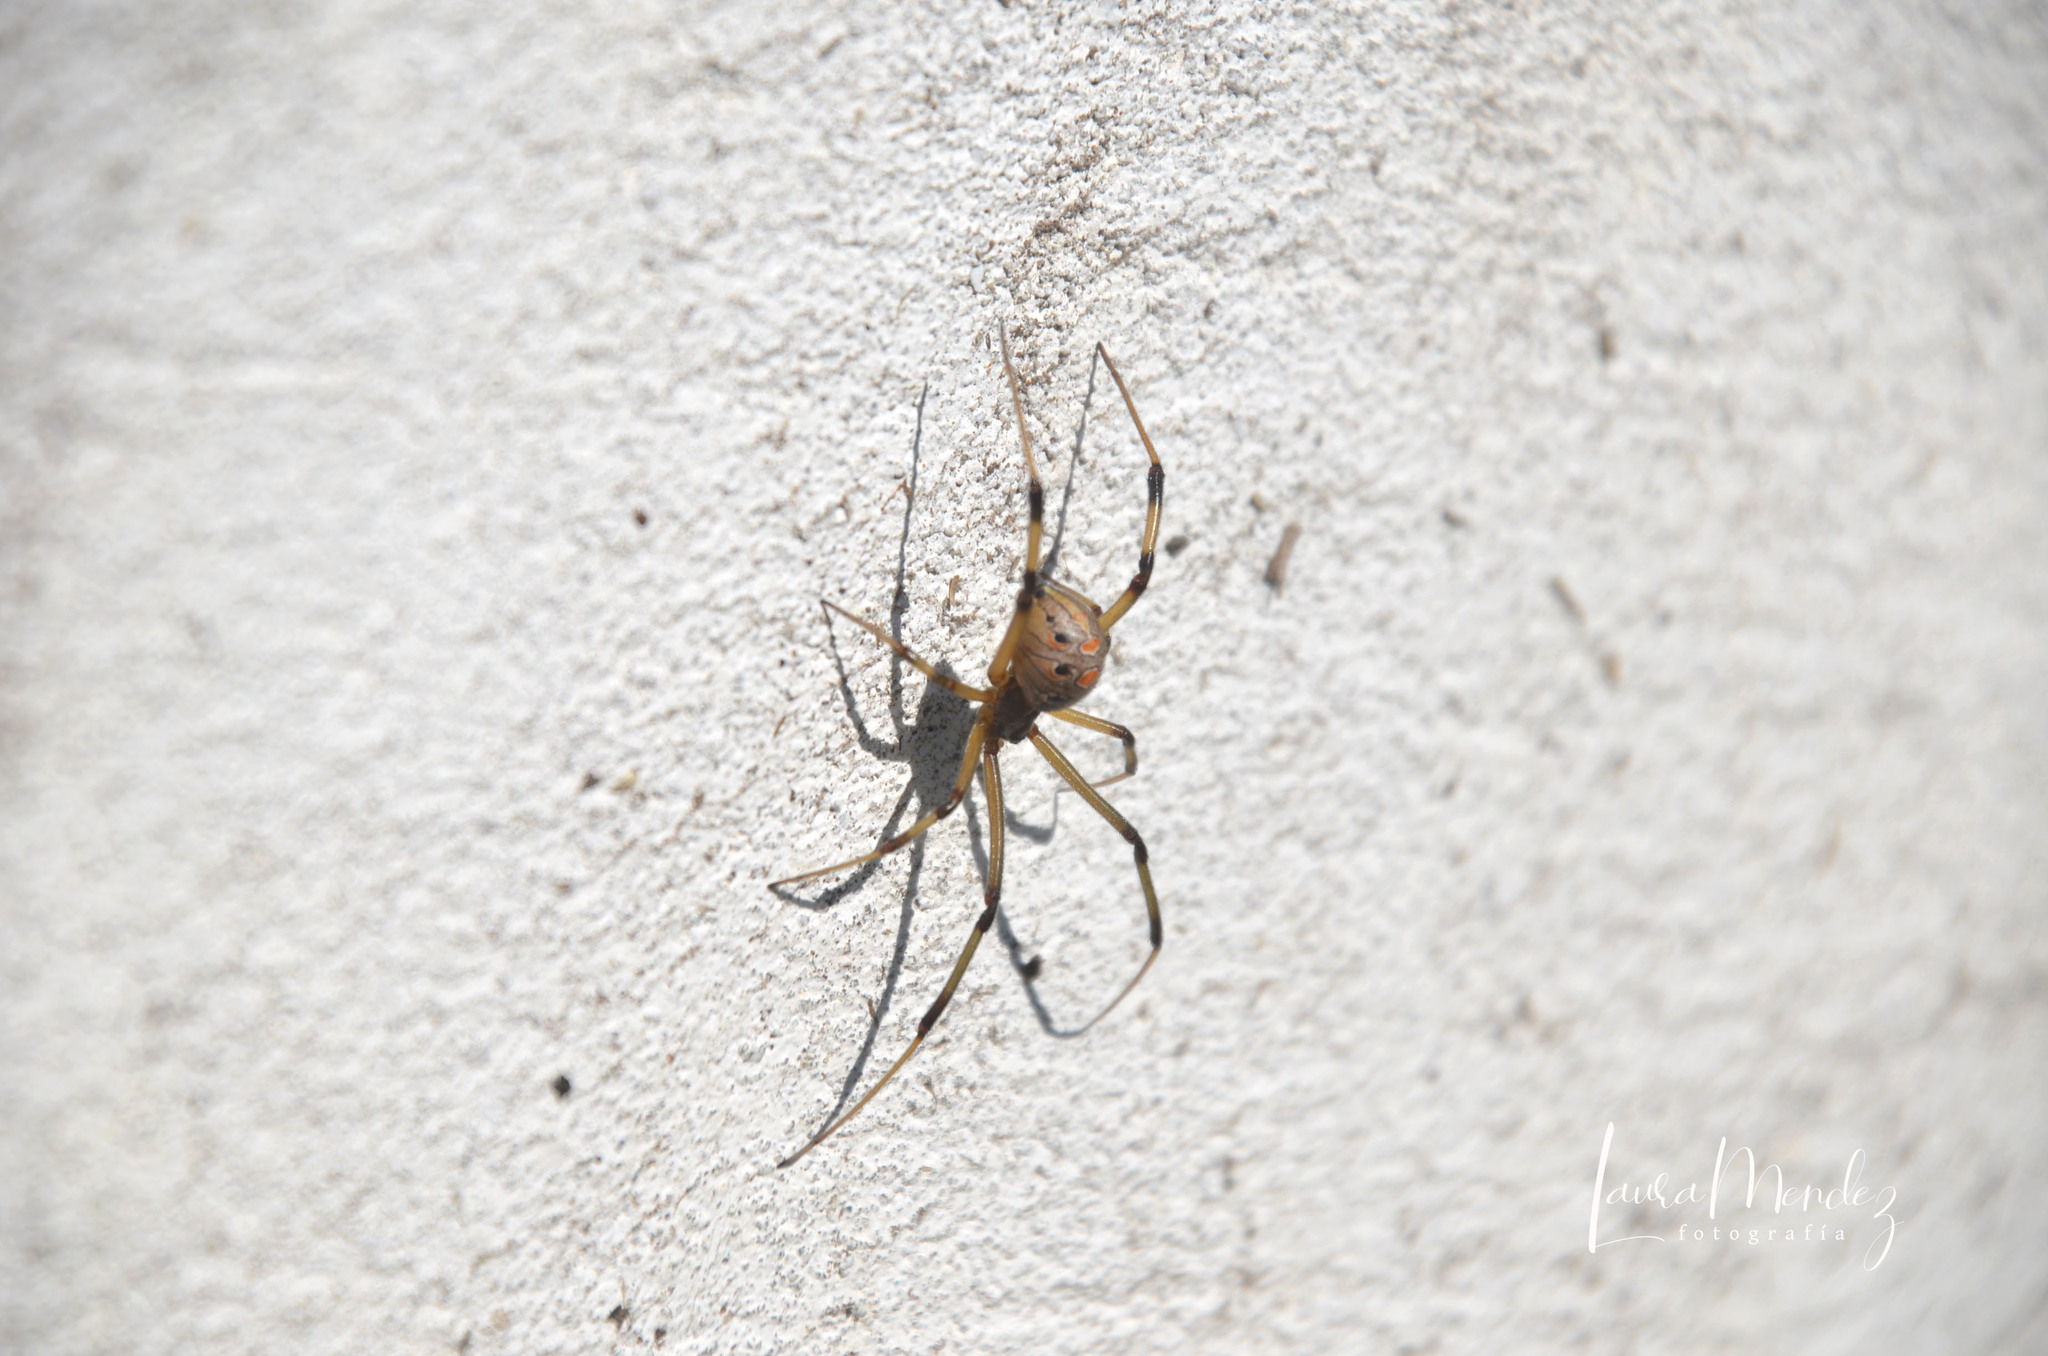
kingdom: Animalia
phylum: Arthropoda
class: Arachnida
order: Araneae
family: Theridiidae
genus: Latrodectus
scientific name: Latrodectus geometricus
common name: Brown widow spider
